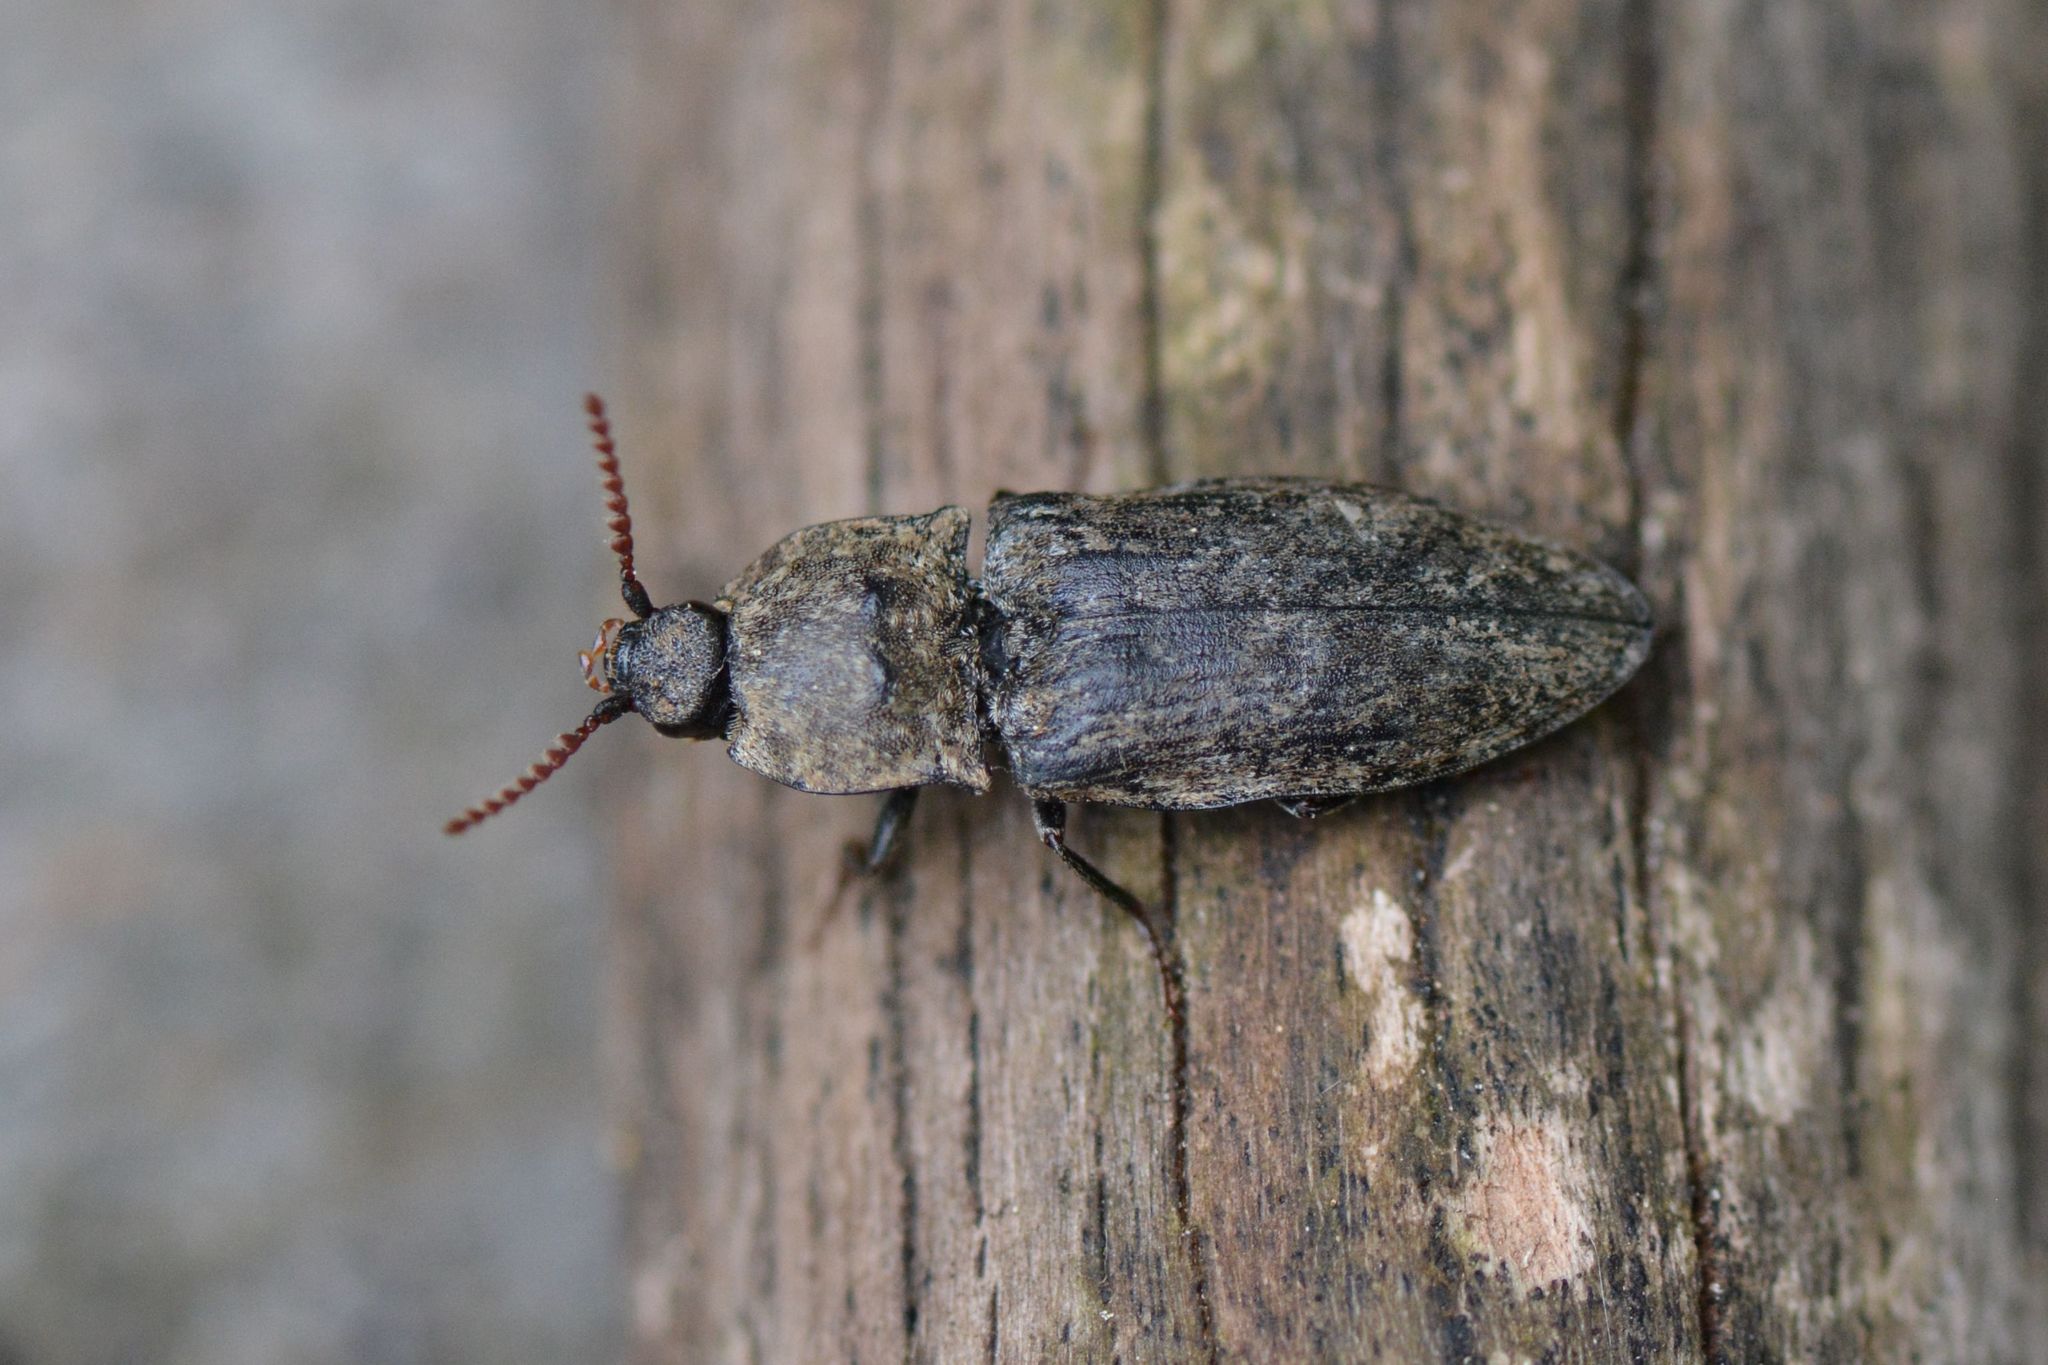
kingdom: Animalia
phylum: Arthropoda
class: Insecta
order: Coleoptera
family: Elateridae
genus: Agrypnus
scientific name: Agrypnus murinus
